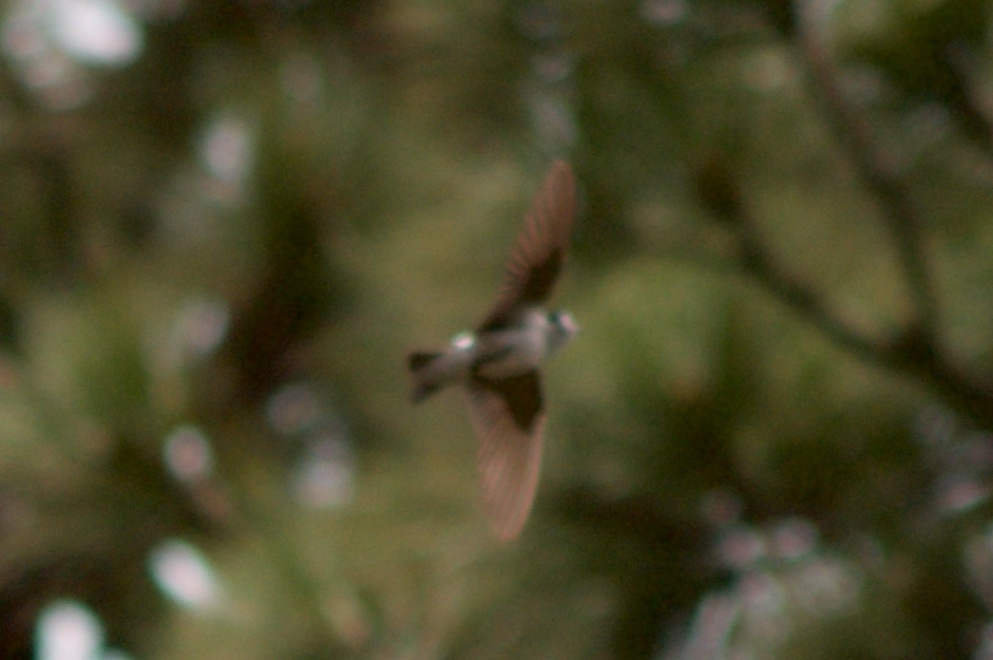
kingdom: Animalia
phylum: Chordata
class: Aves
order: Passeriformes
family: Hirundinidae
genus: Tachycineta
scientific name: Tachycineta thalassina
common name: Violet-green swallow
